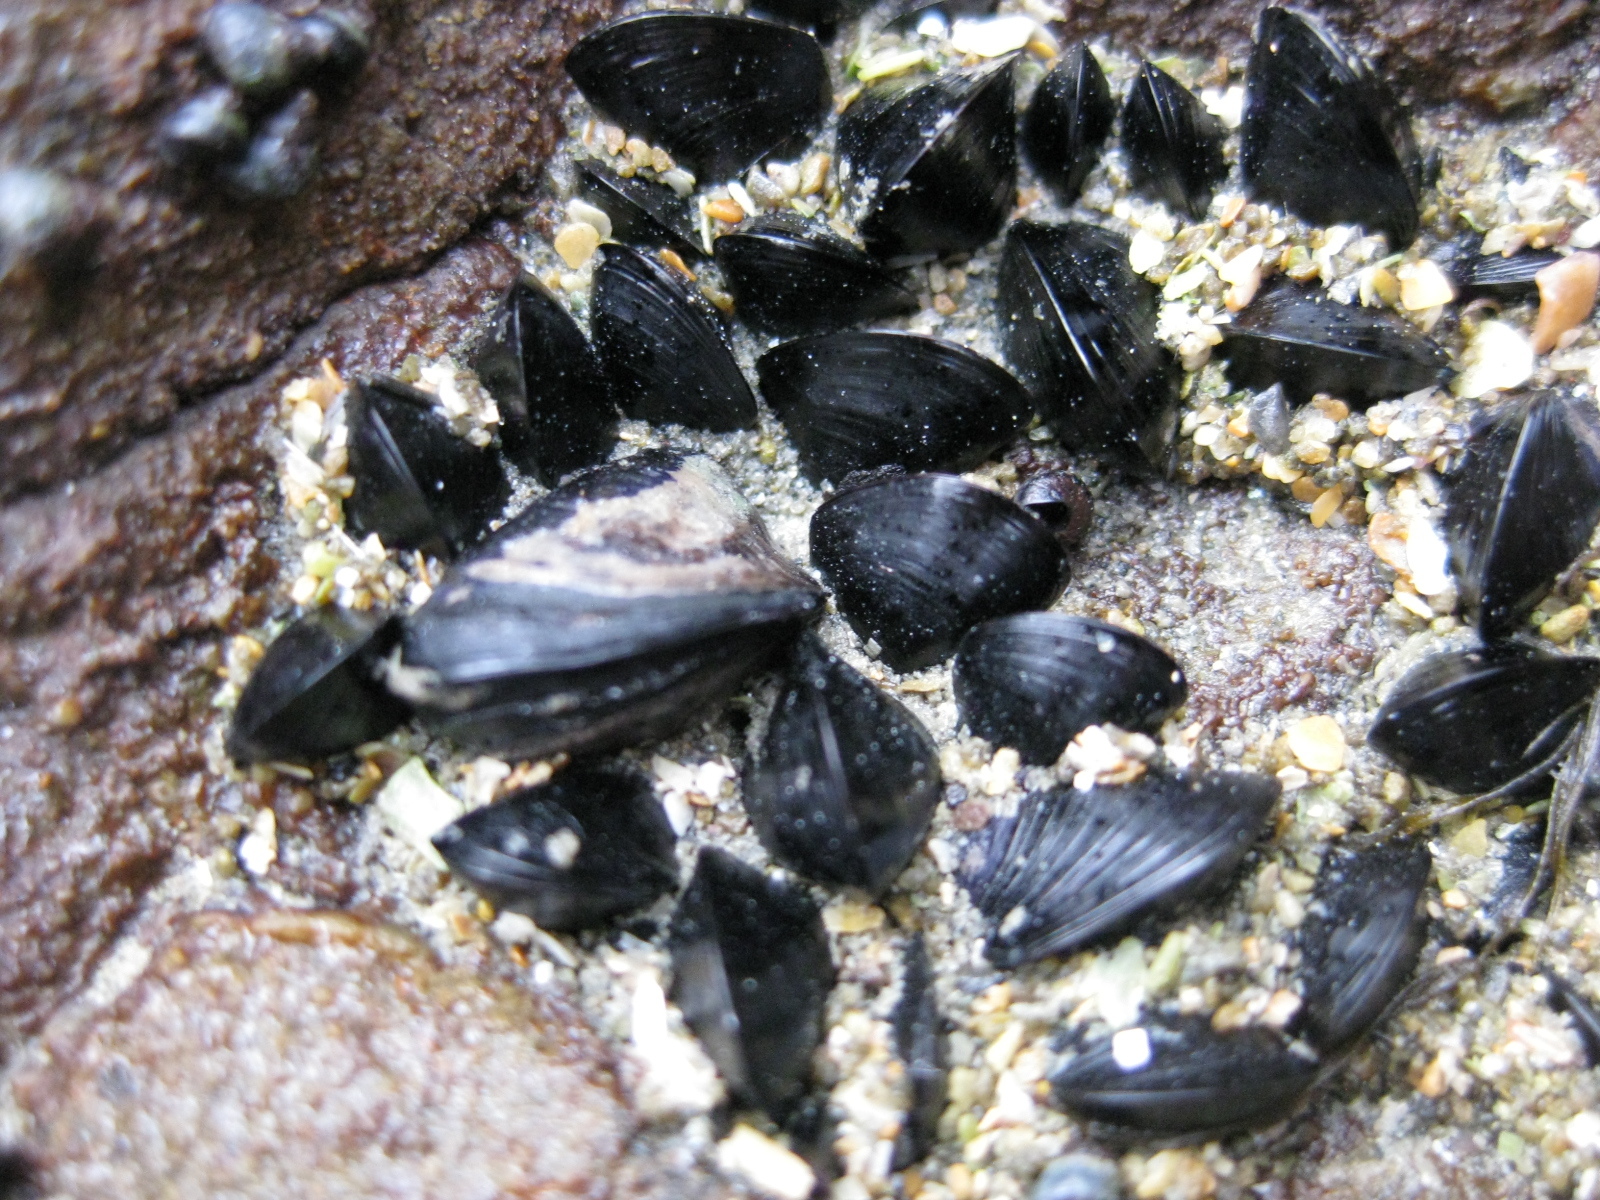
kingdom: Animalia
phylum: Mollusca
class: Bivalvia
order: Mytilida
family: Mytilidae
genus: Xenostrobus
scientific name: Xenostrobus neozelanicus
